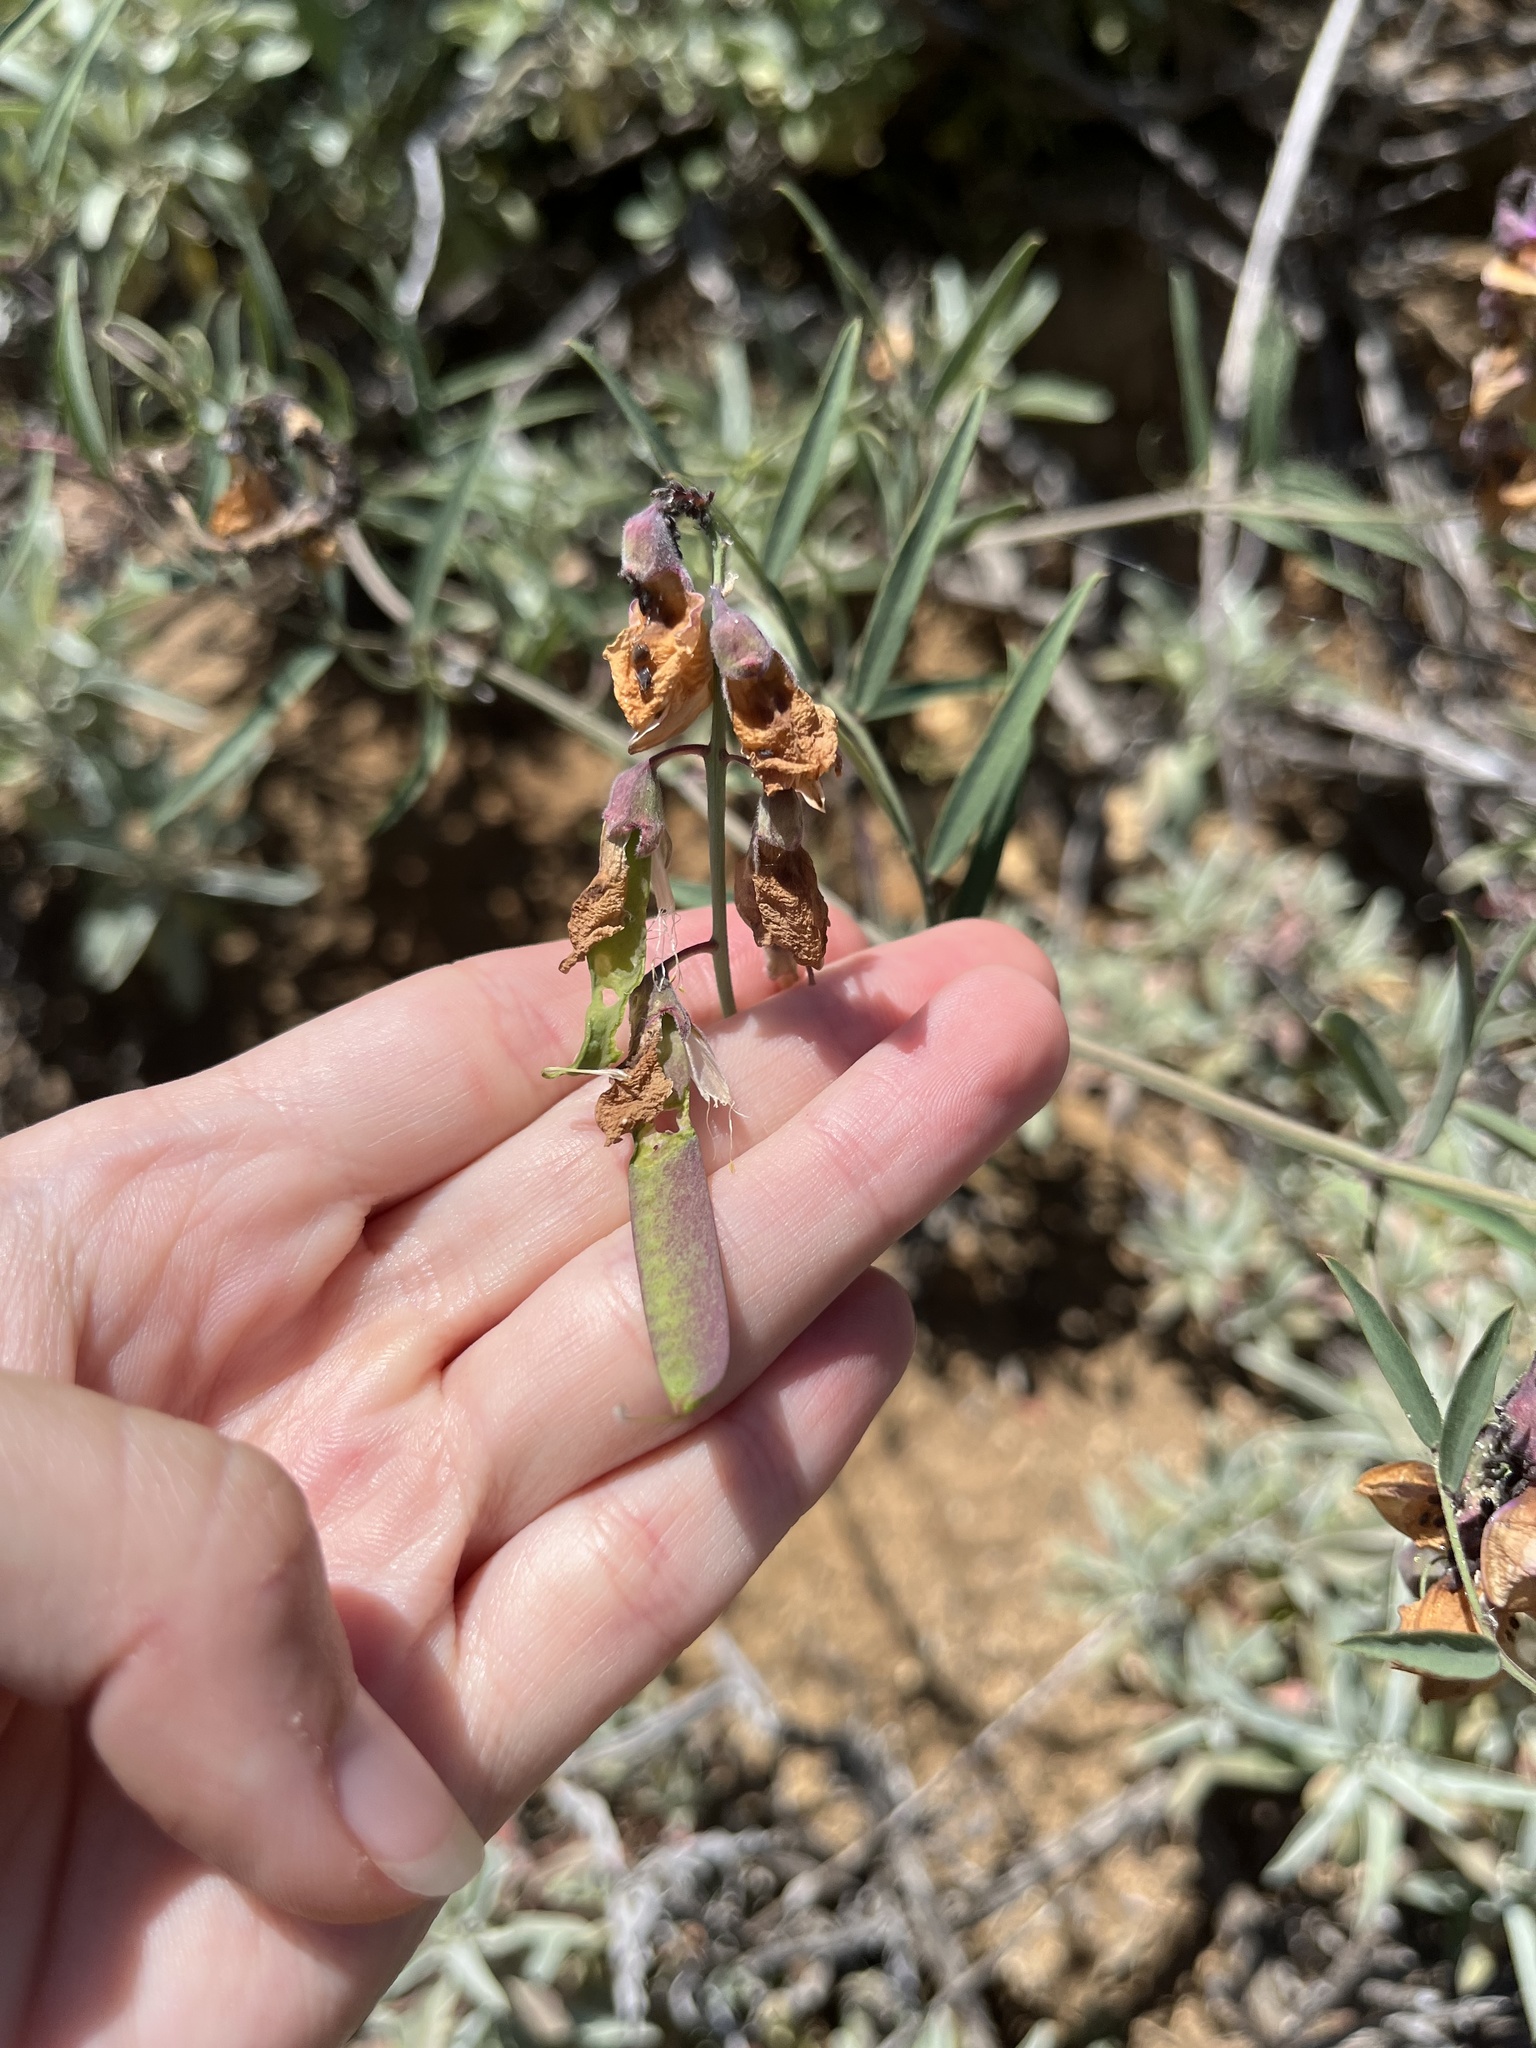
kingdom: Plantae
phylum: Tracheophyta
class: Magnoliopsida
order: Fabales
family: Fabaceae
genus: Lathyrus
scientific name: Lathyrus vestitus
